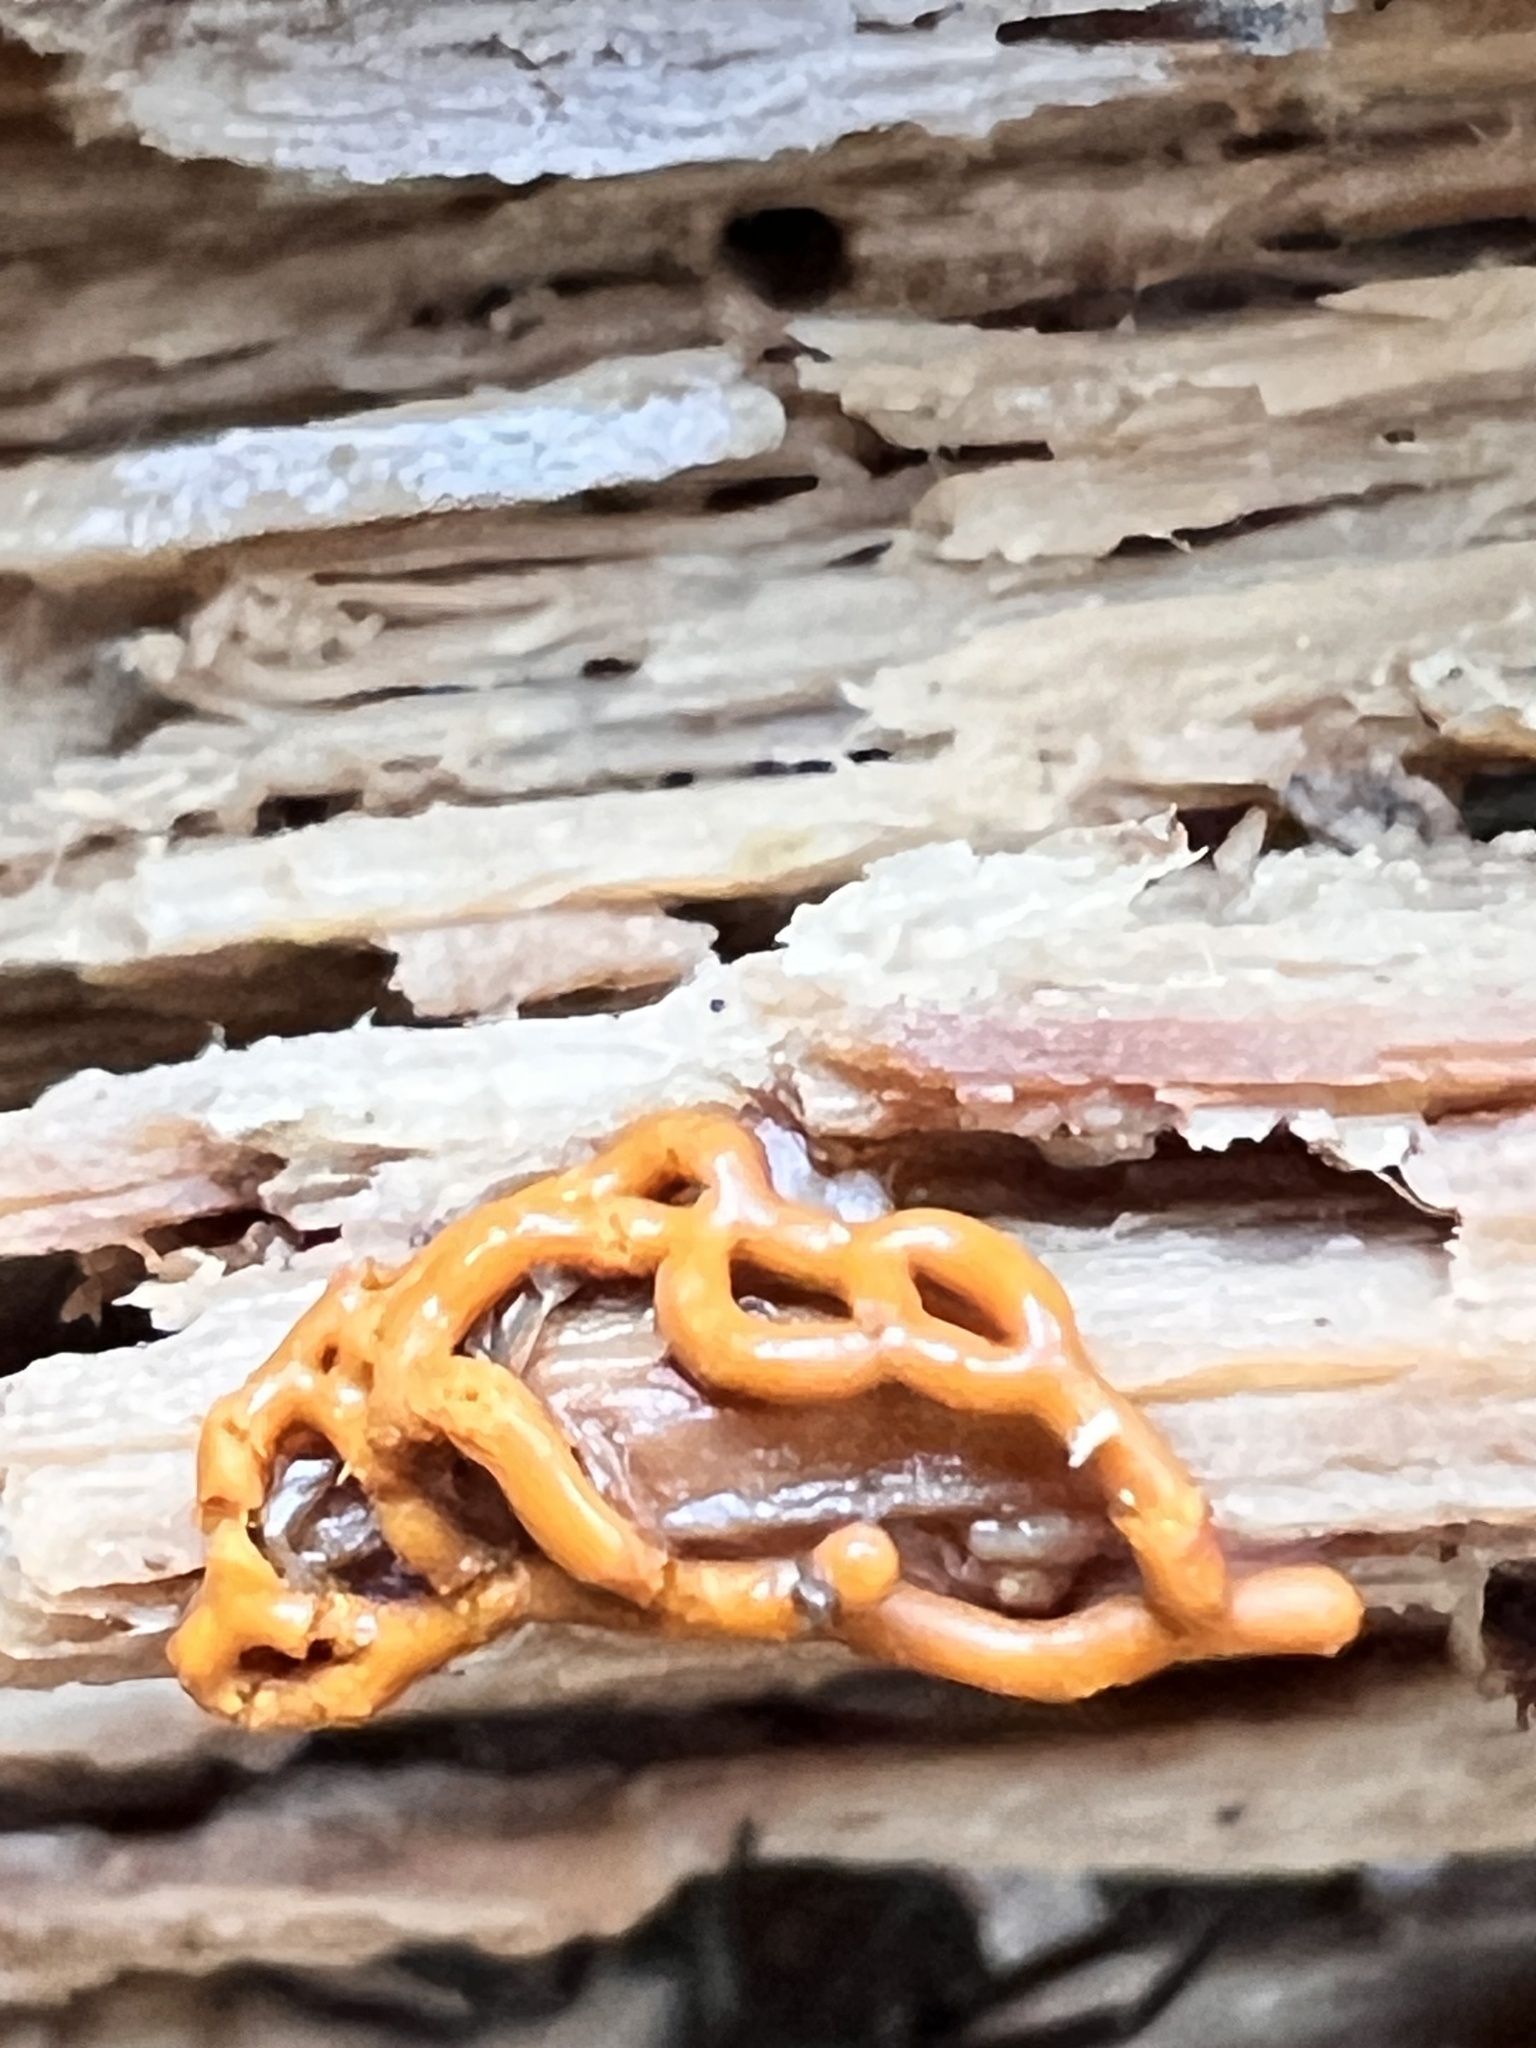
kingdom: Protozoa
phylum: Mycetozoa
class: Myxomycetes
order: Trichiales
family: Arcyriaceae
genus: Hemitrichia
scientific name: Hemitrichia serpula
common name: Pretzel slime mold
